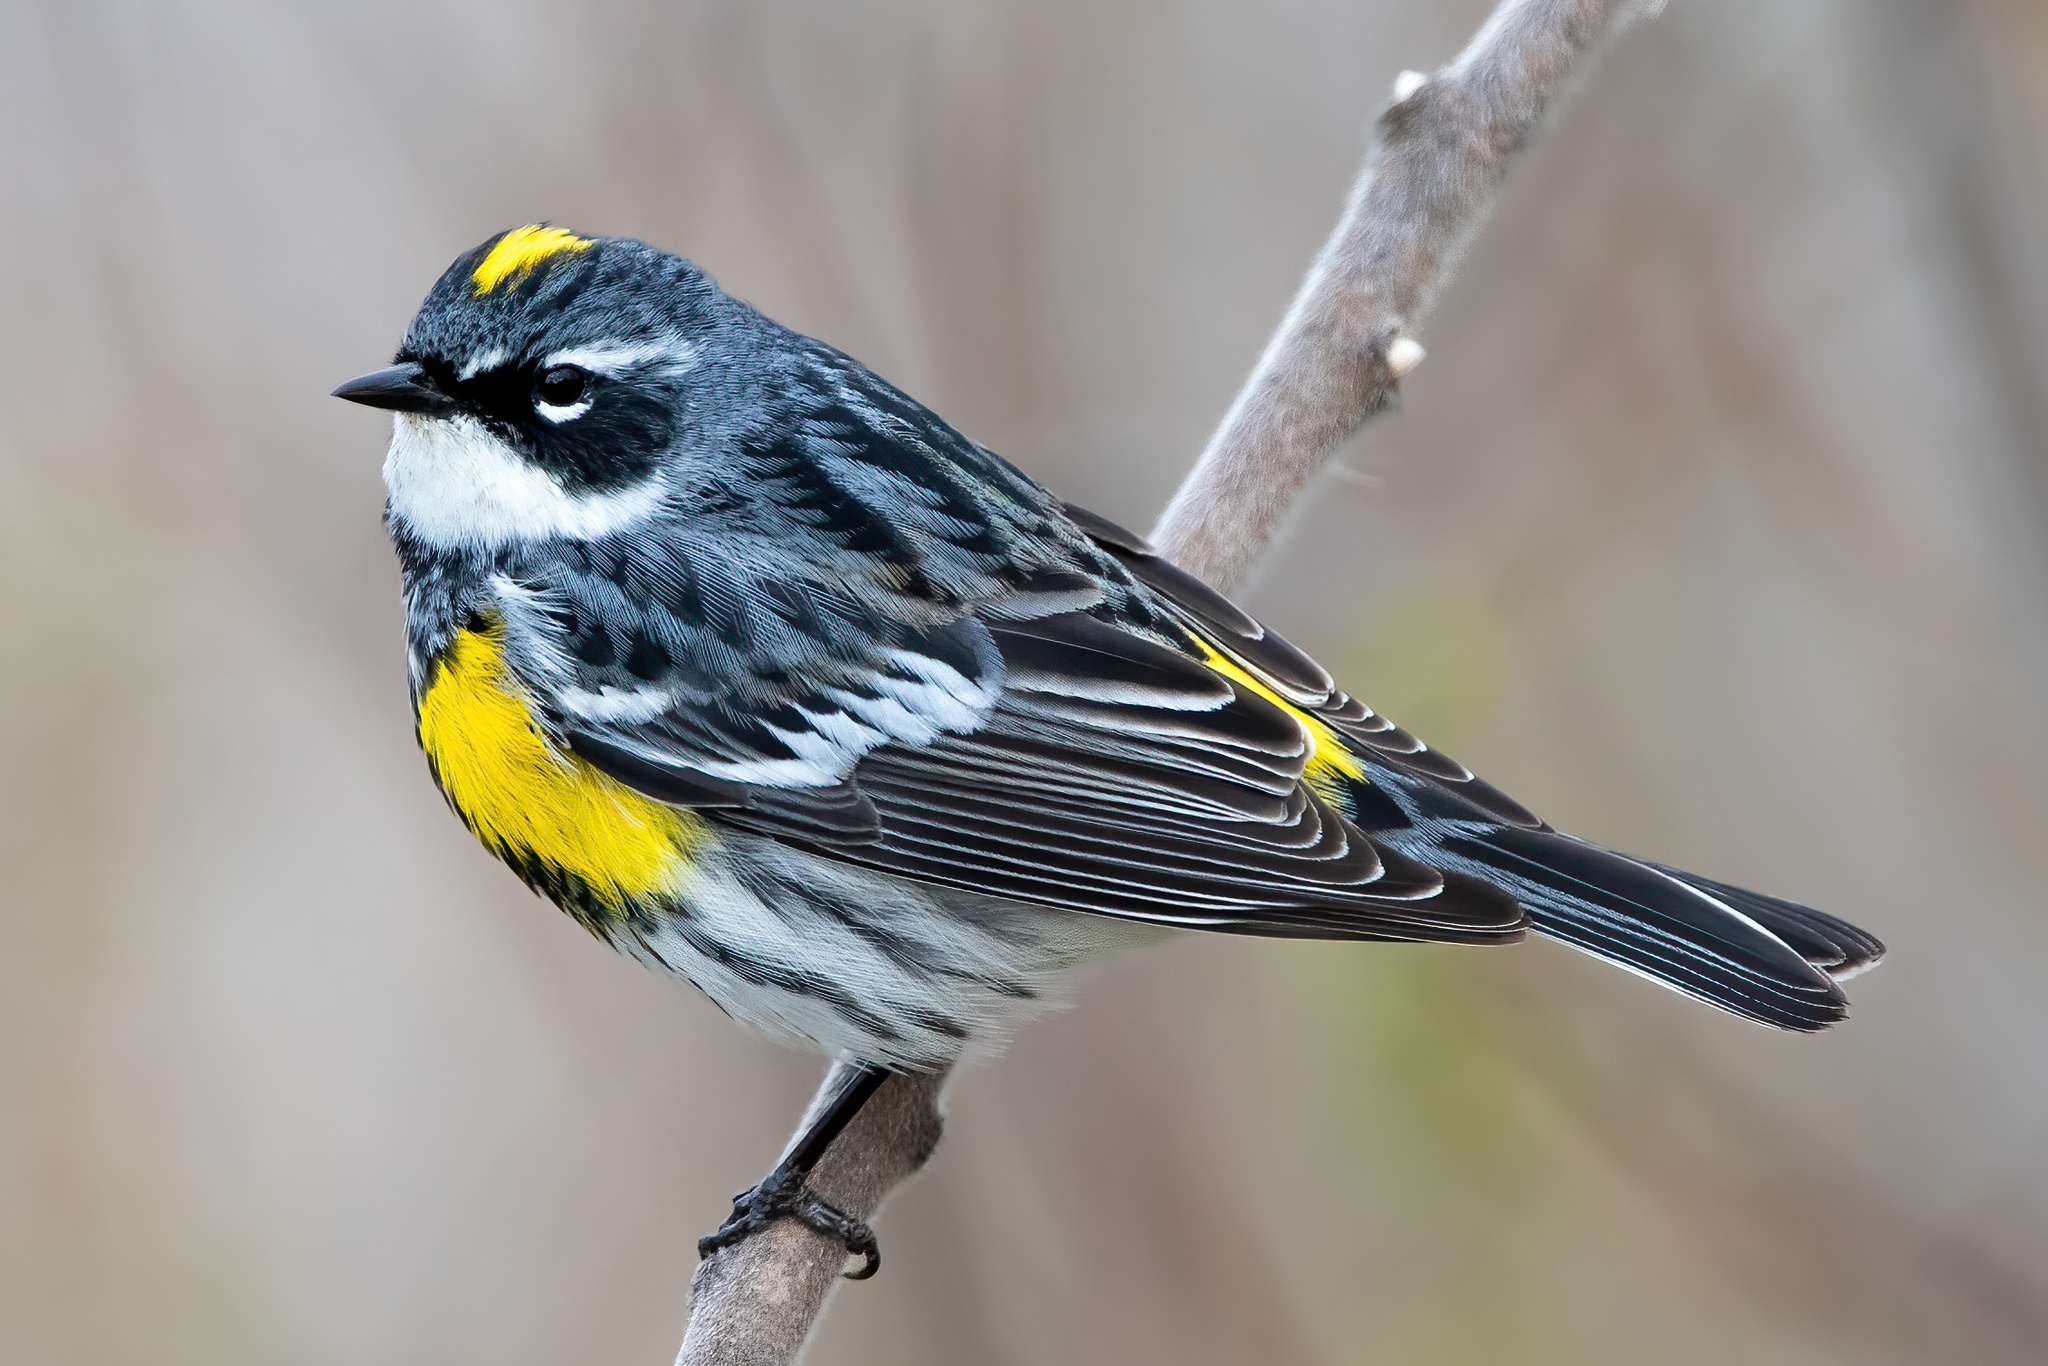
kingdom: Animalia
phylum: Chordata
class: Aves
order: Passeriformes
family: Parulidae
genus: Setophaga
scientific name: Setophaga coronata
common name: Myrtle warbler
